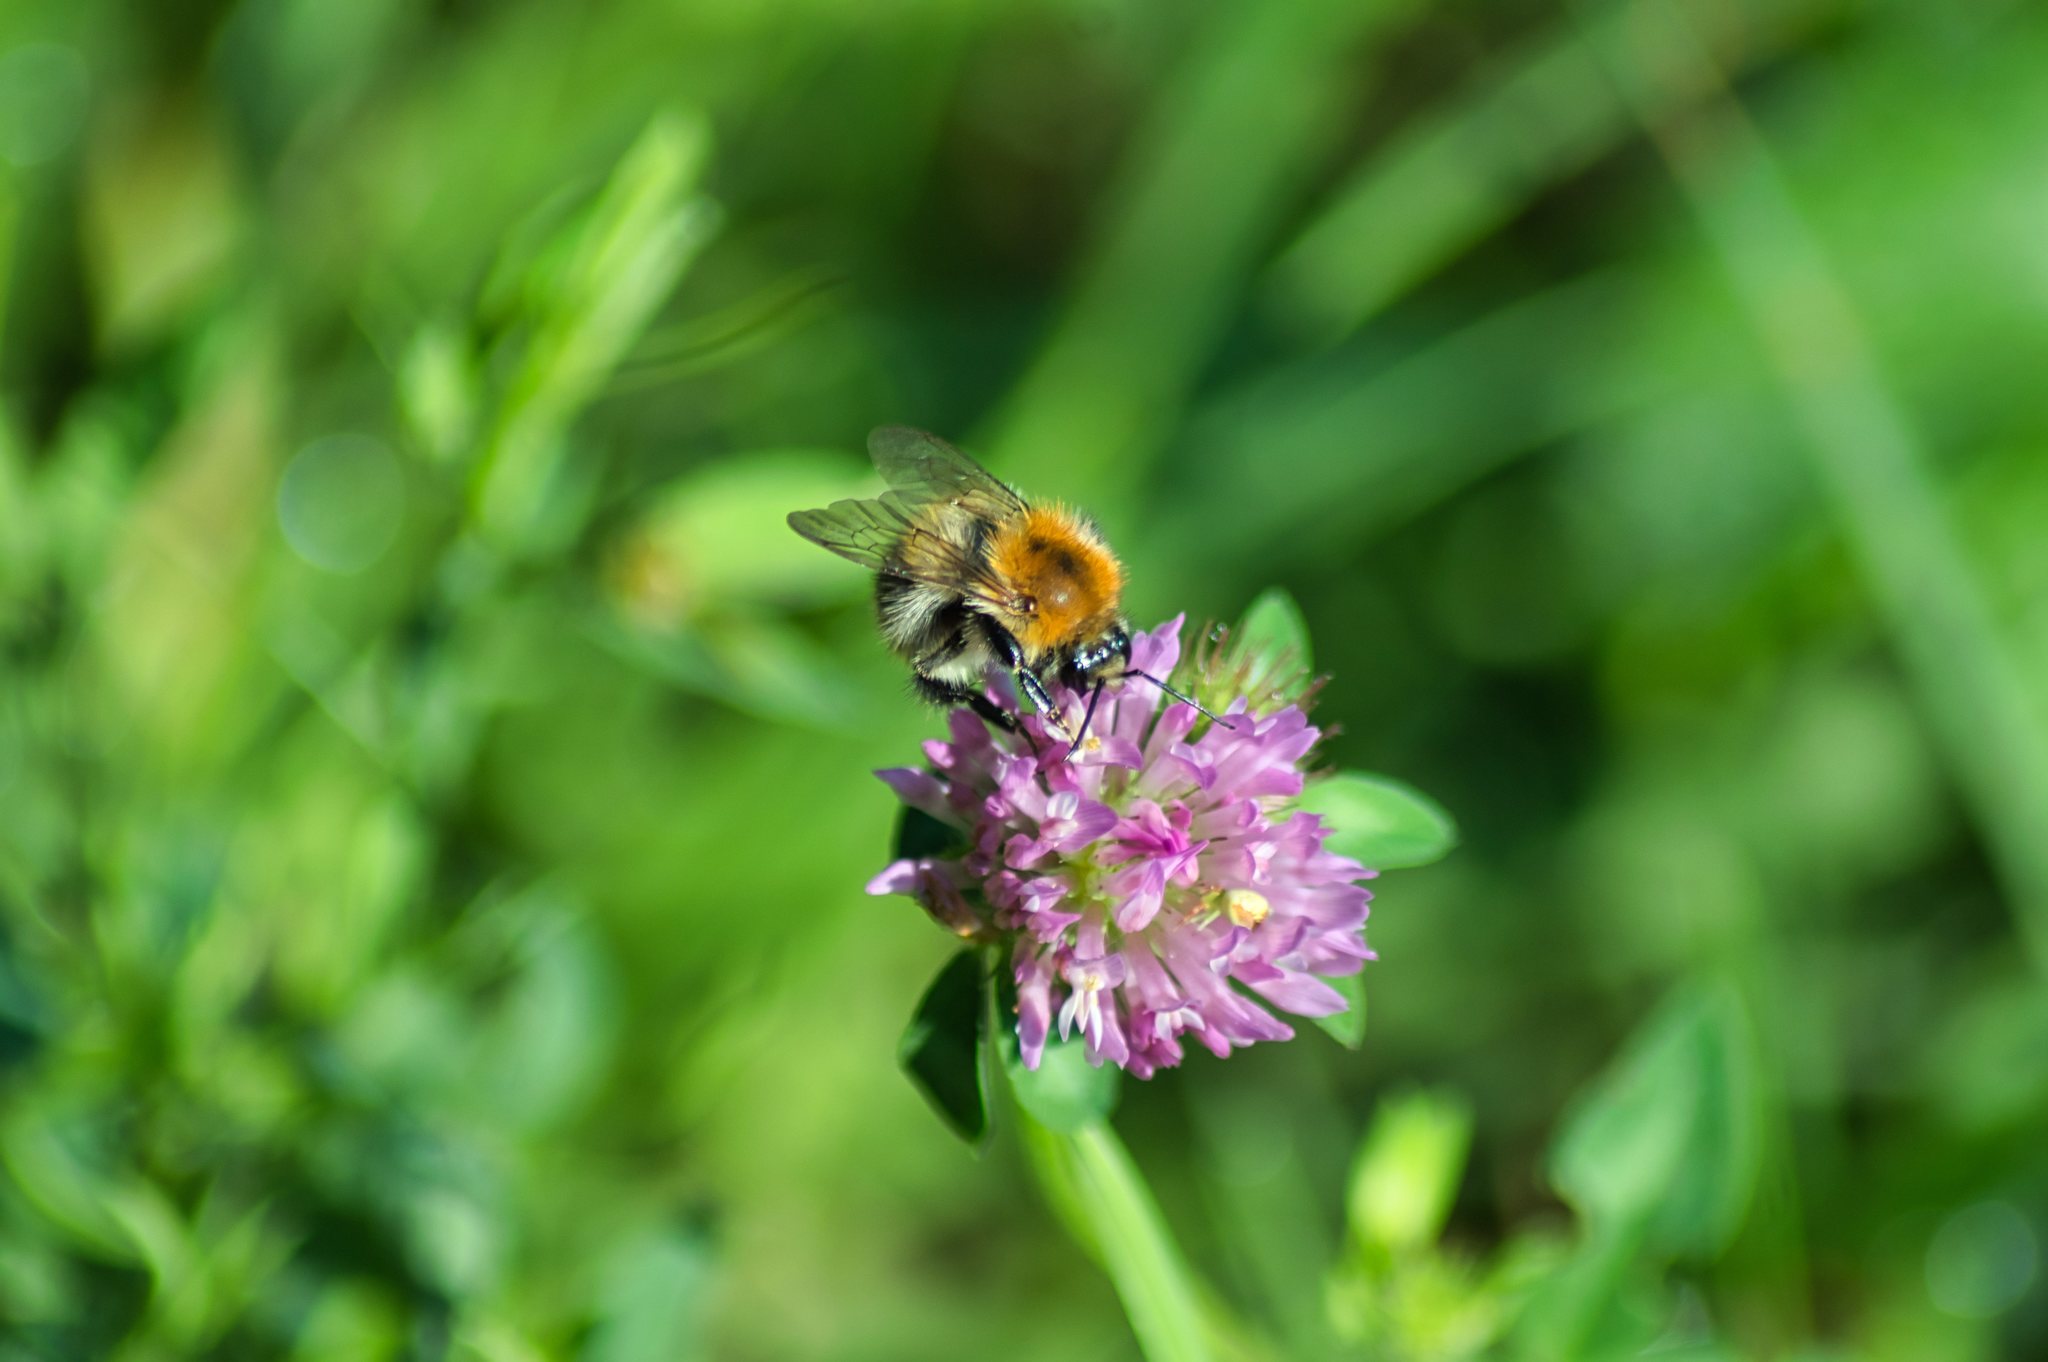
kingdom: Animalia
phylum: Arthropoda
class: Insecta
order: Hymenoptera
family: Apidae
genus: Bombus
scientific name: Bombus pascuorum
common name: Common carder bee
